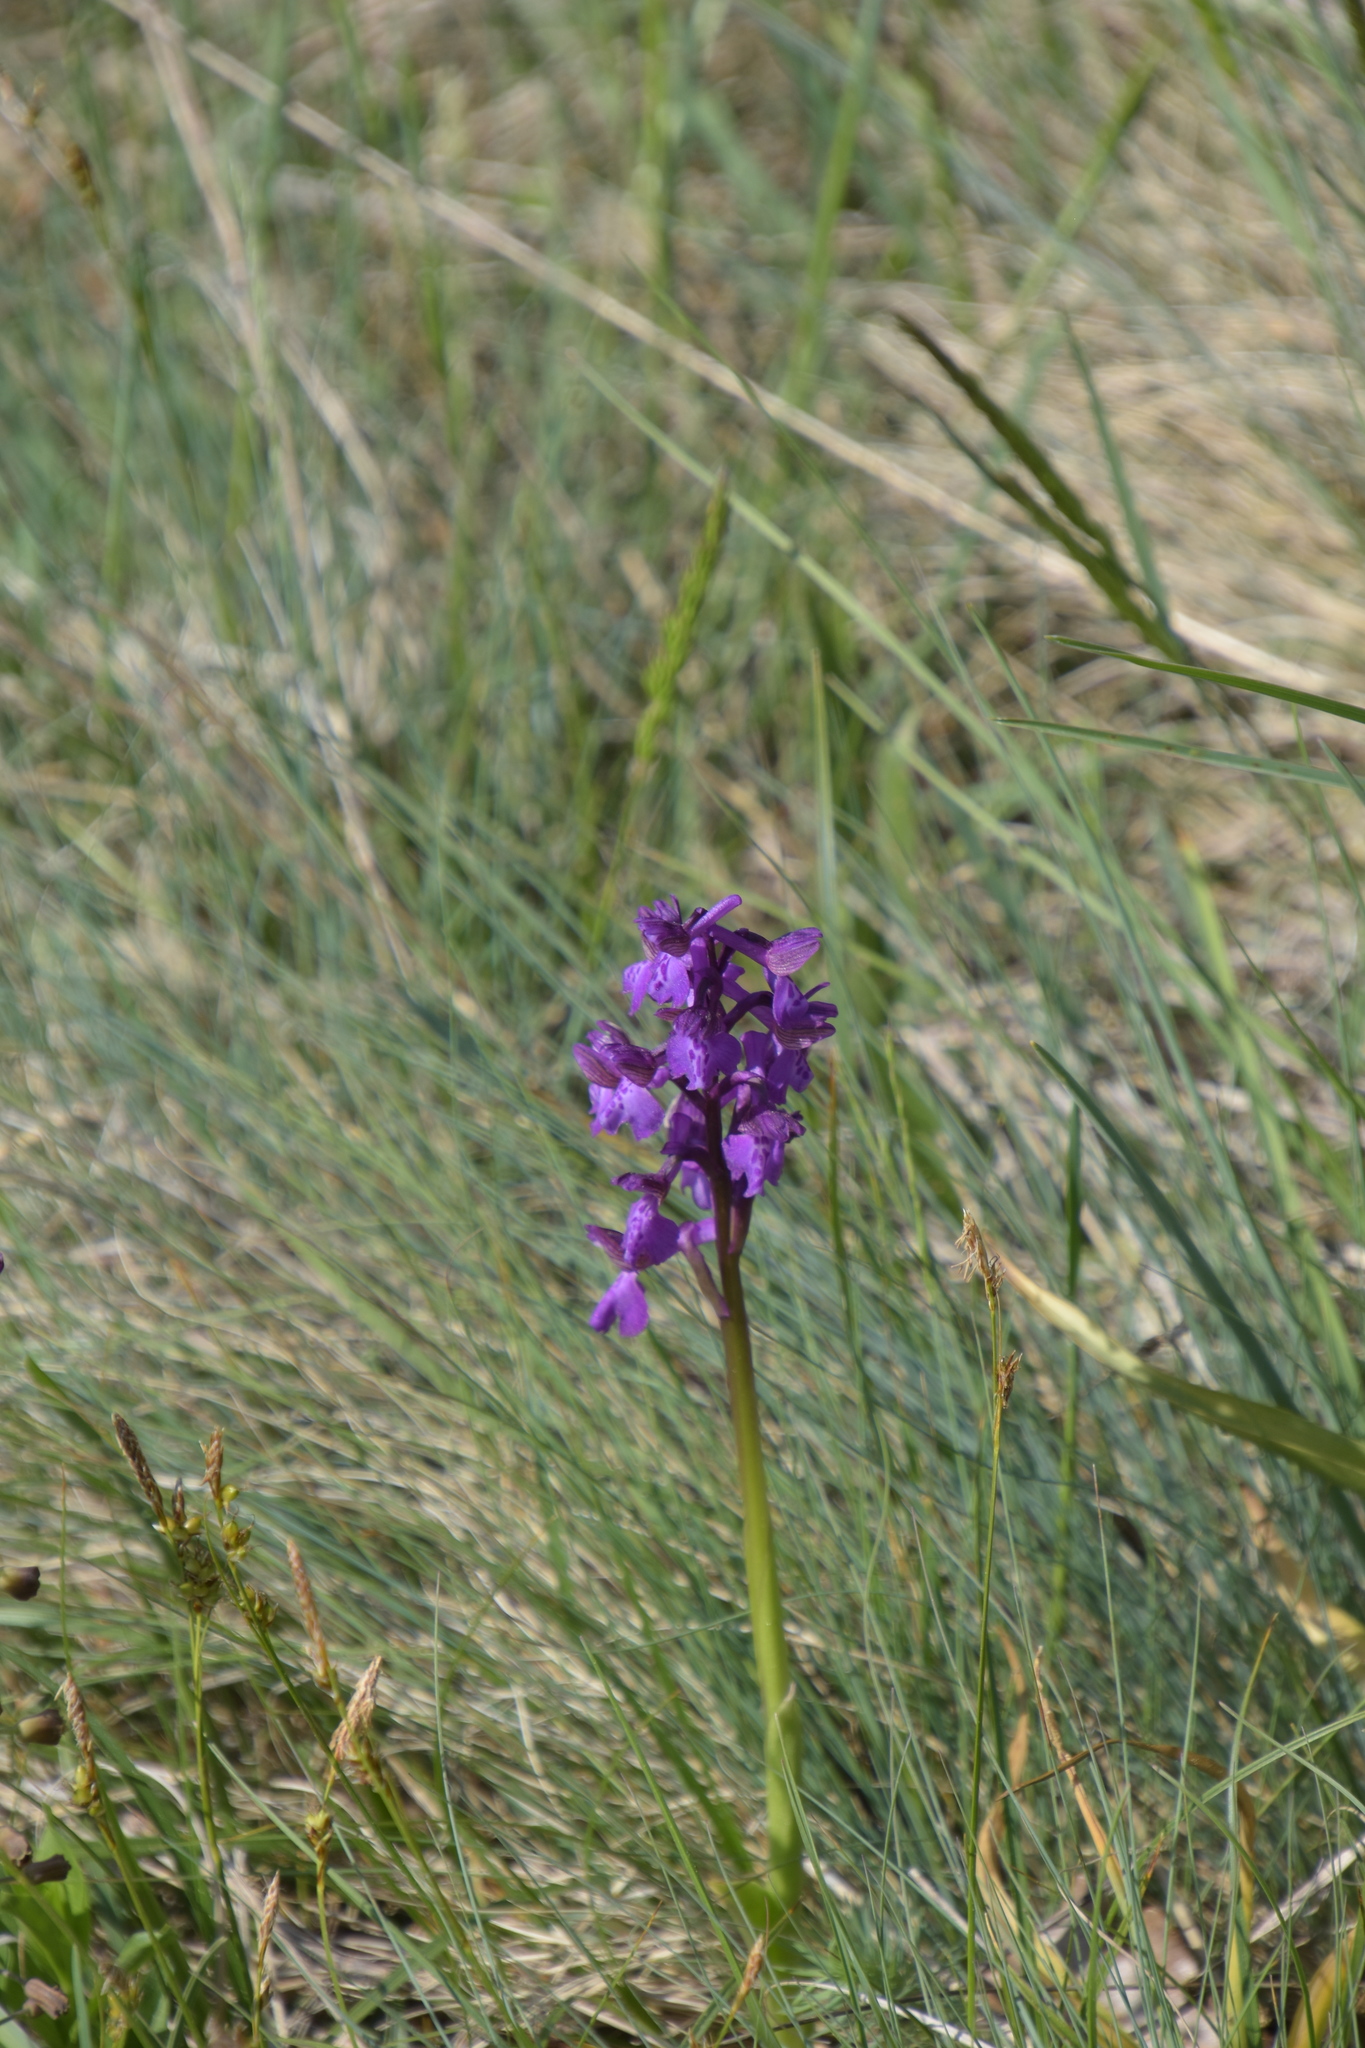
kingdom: Plantae
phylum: Tracheophyta
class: Liliopsida
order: Asparagales
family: Orchidaceae
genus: Anacamptis
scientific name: Anacamptis morio
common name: Green-winged orchid
